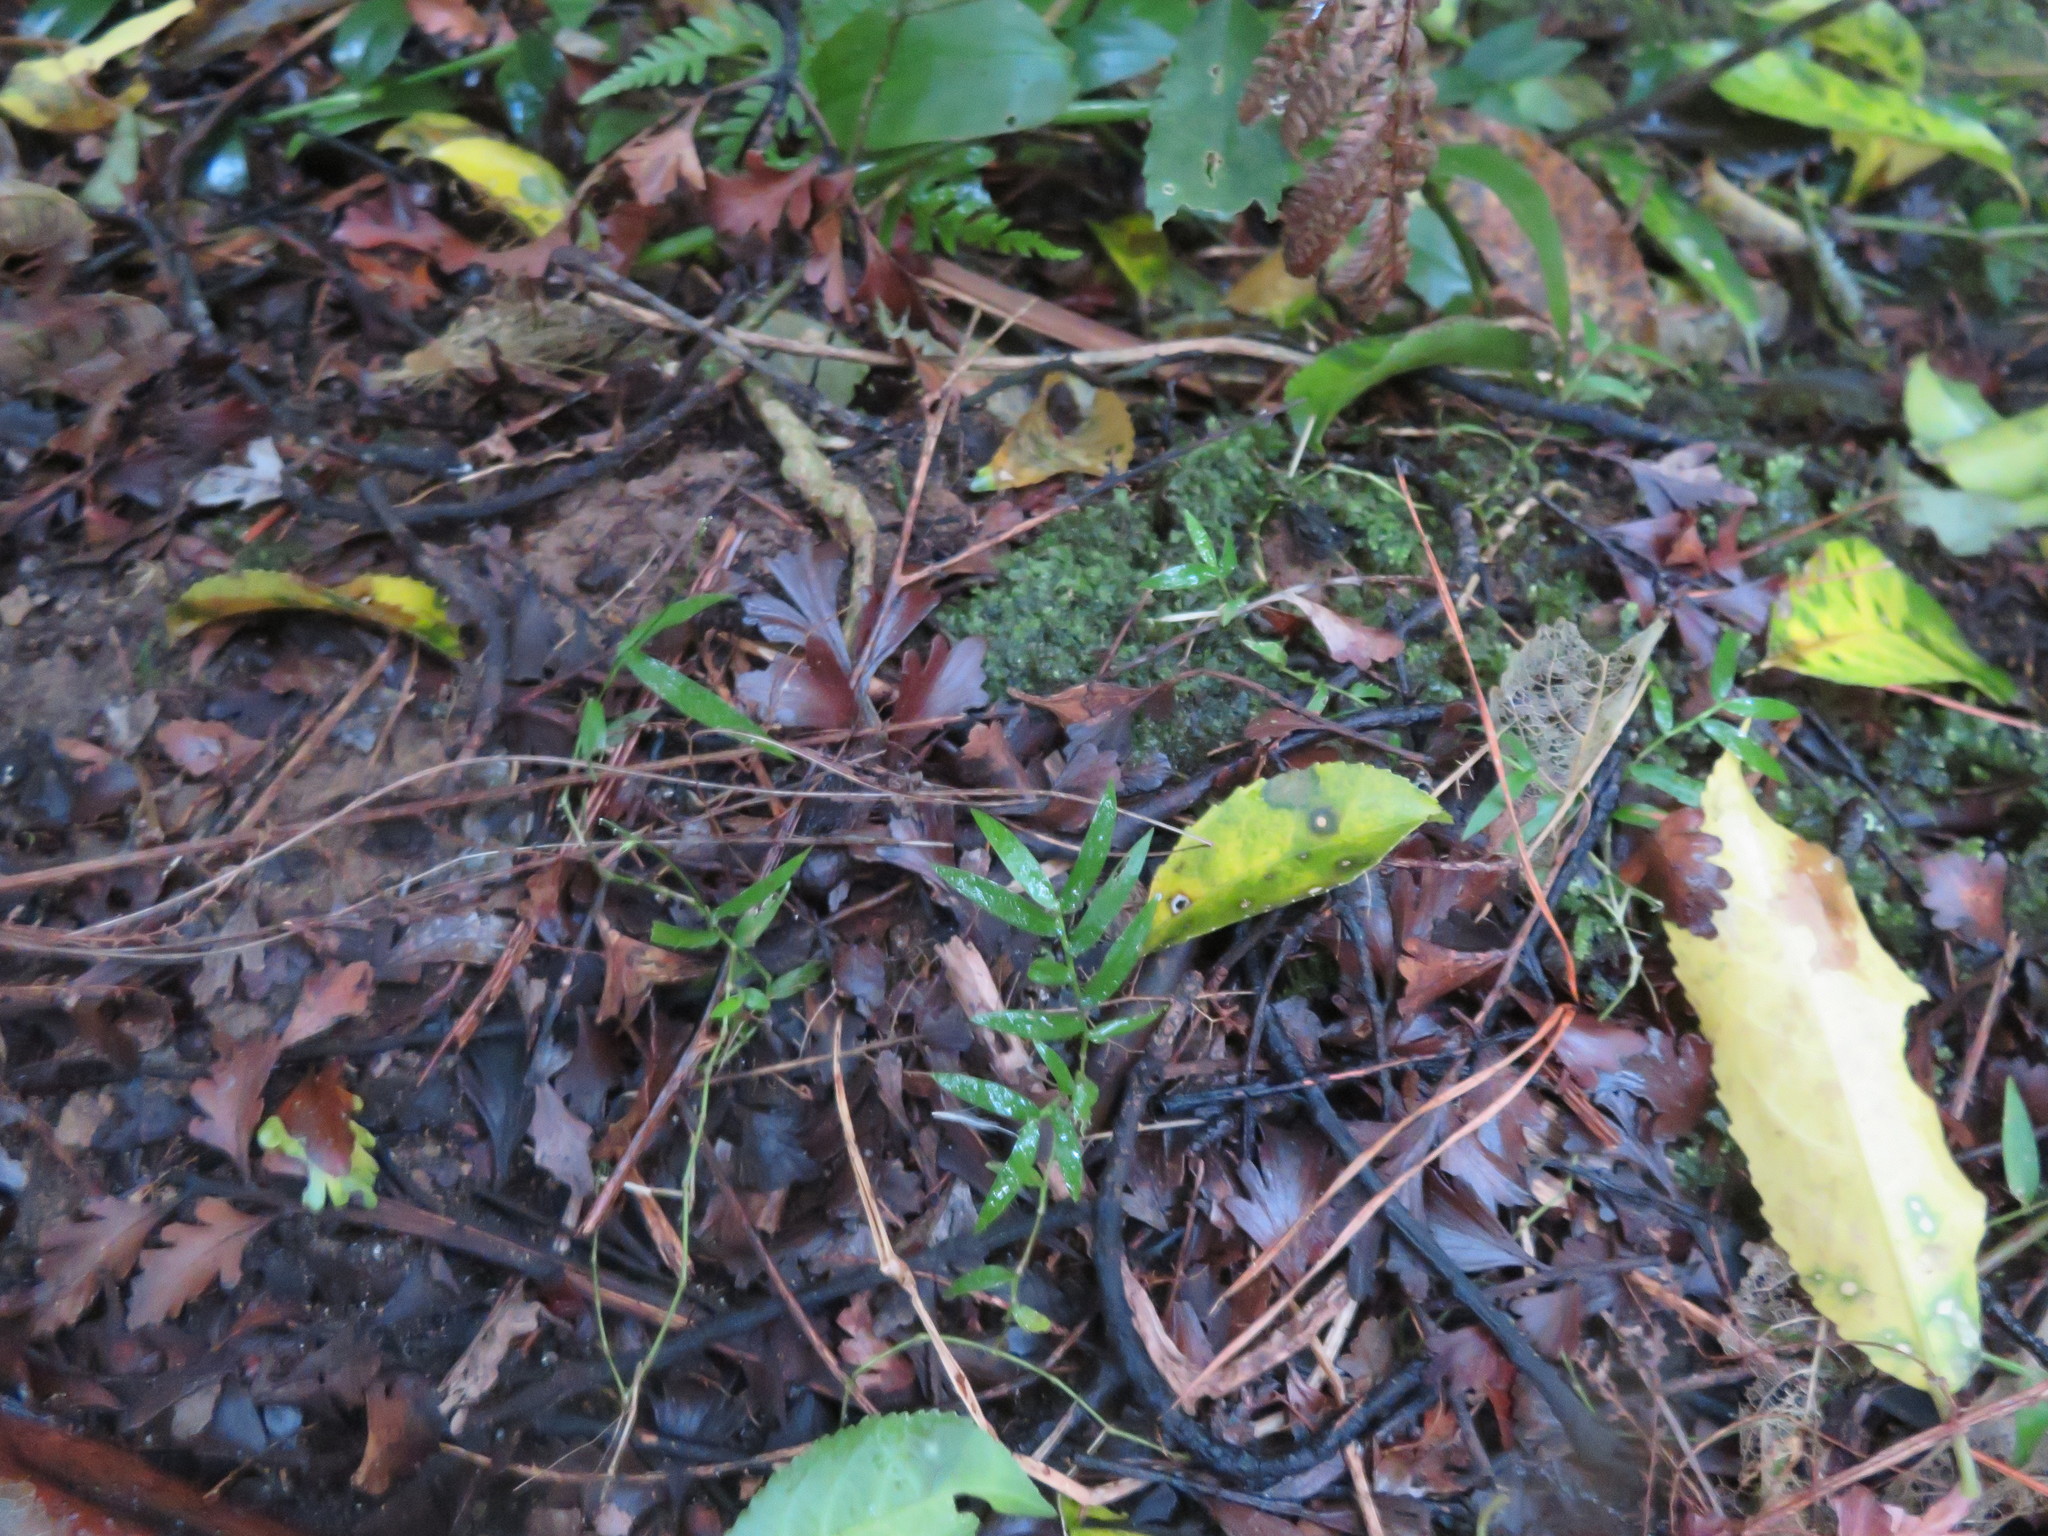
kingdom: Plantae
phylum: Tracheophyta
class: Liliopsida
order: Poales
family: Poaceae
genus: Oplismenus
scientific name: Oplismenus hirtellus
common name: Basketgrass
